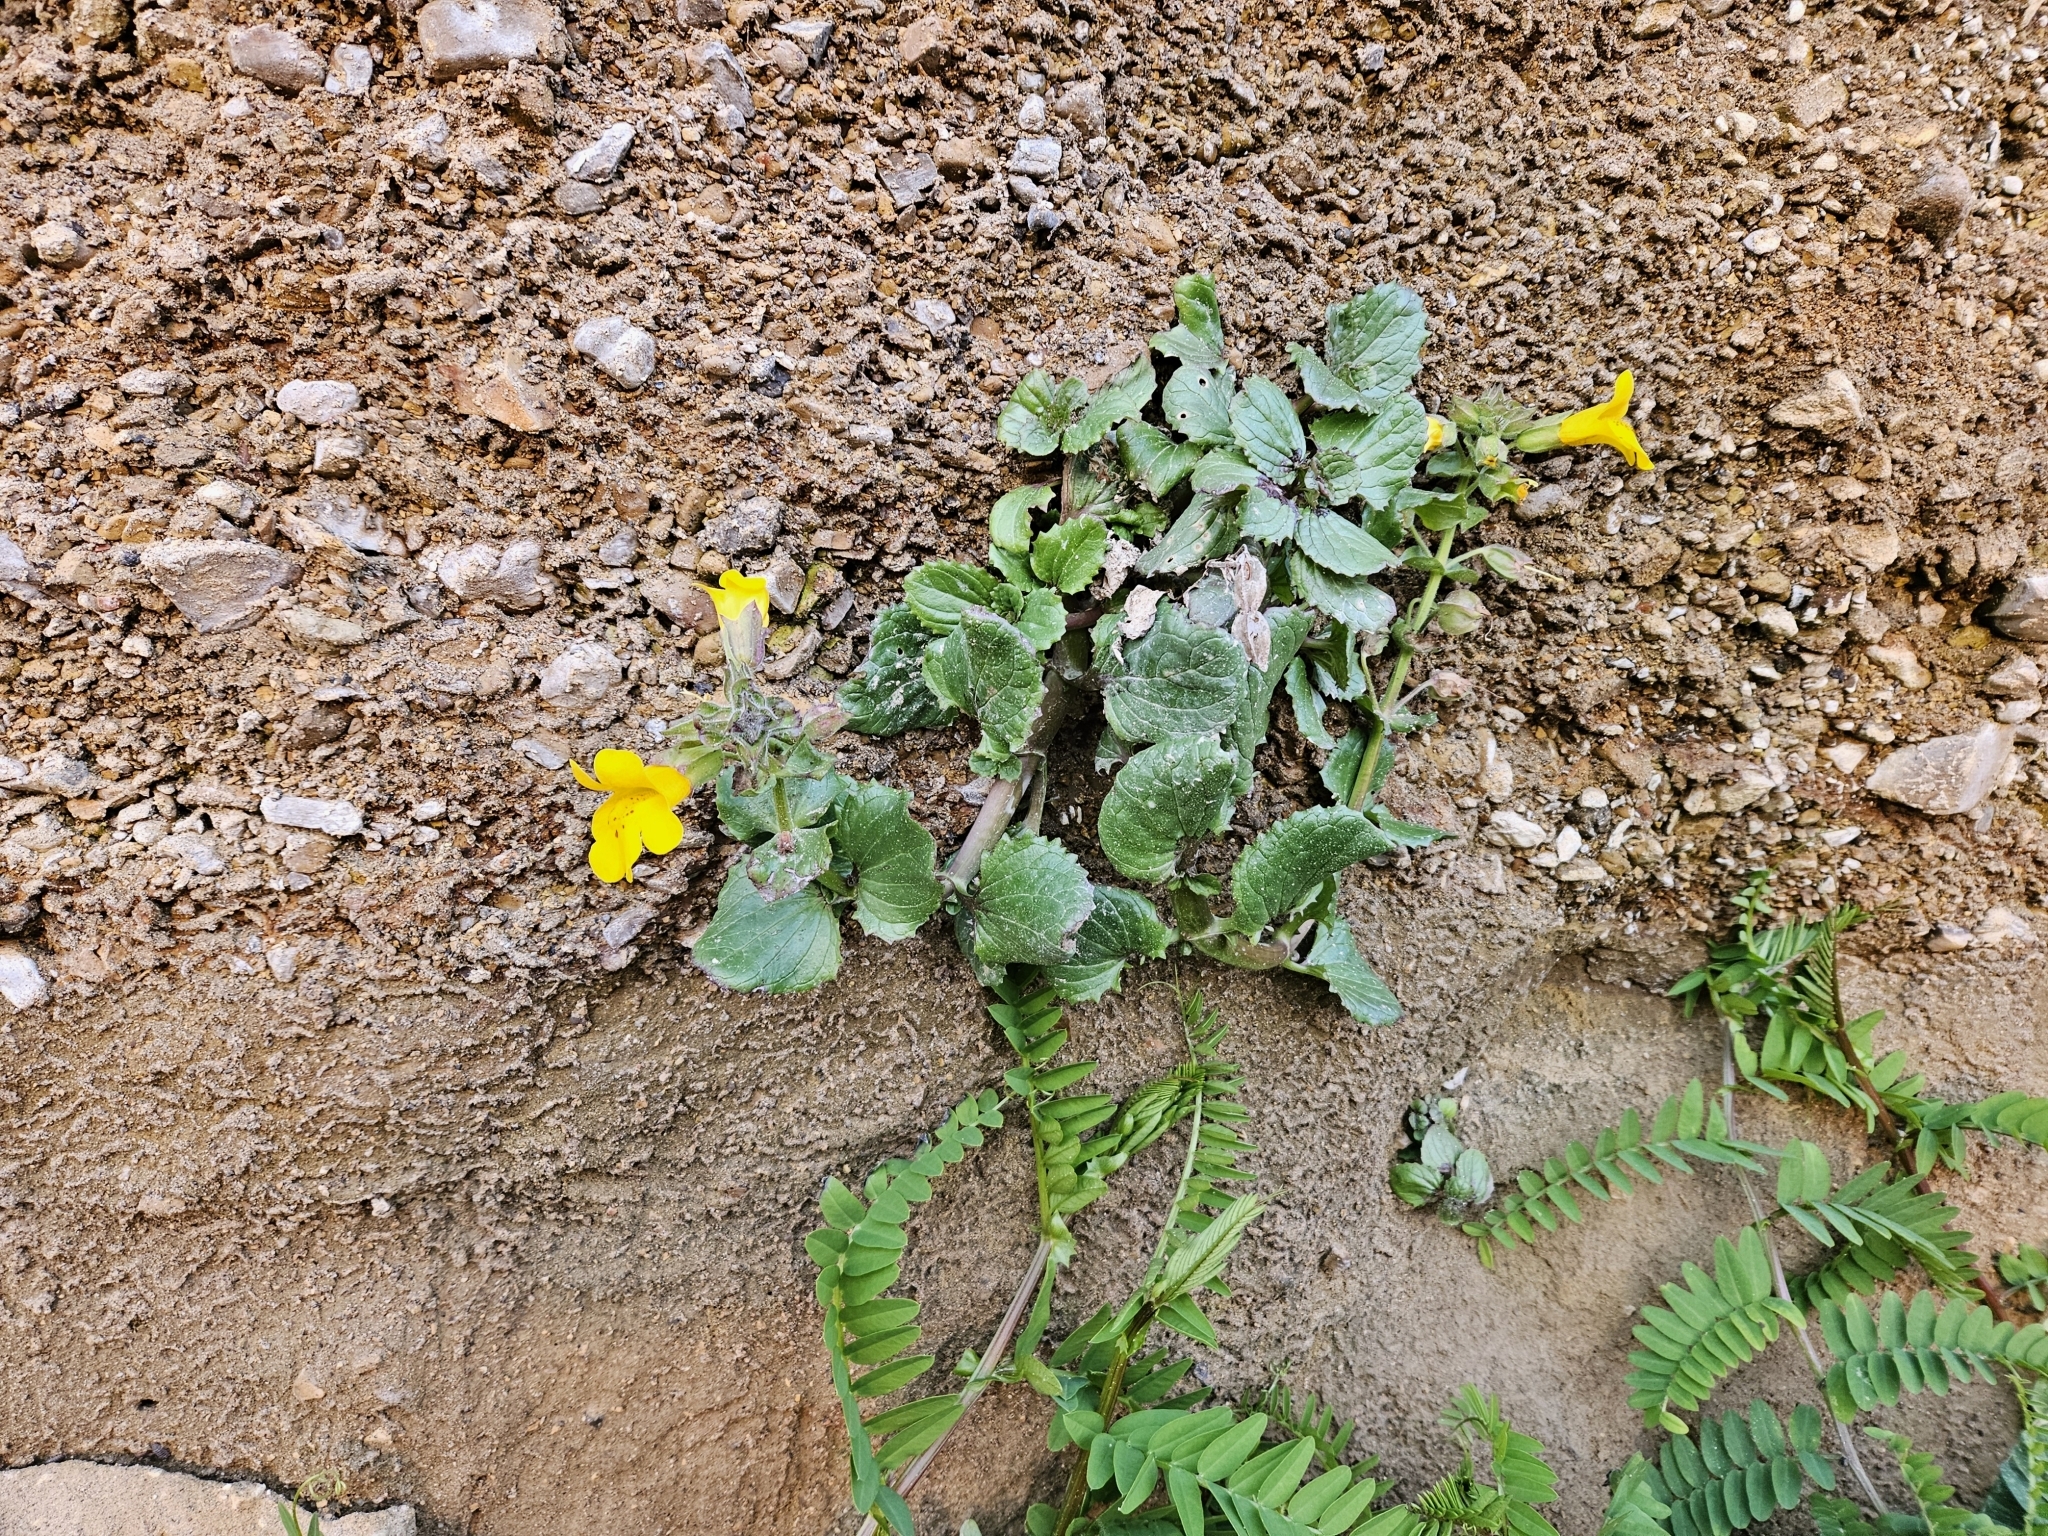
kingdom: Plantae
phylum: Tracheophyta
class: Magnoliopsida
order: Lamiales
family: Phrymaceae
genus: Erythranthe
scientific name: Erythranthe grandis
